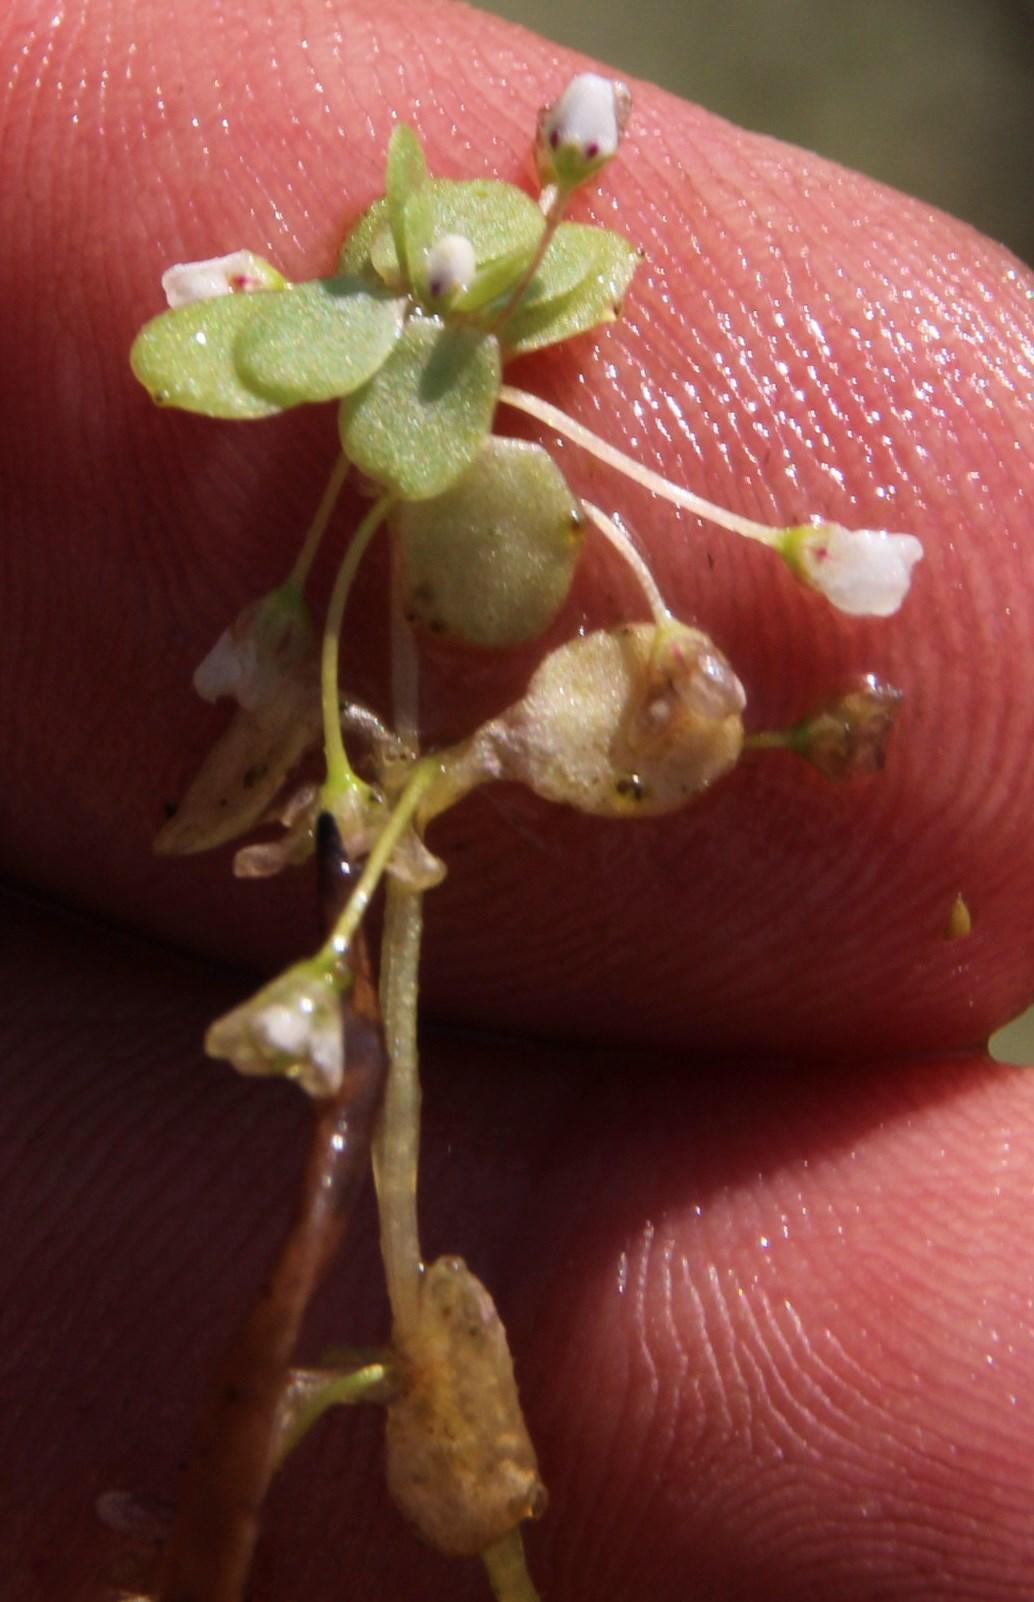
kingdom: Plantae
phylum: Tracheophyta
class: Magnoliopsida
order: Saxifragales
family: Crassulaceae
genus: Crassula
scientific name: Crassula natans
